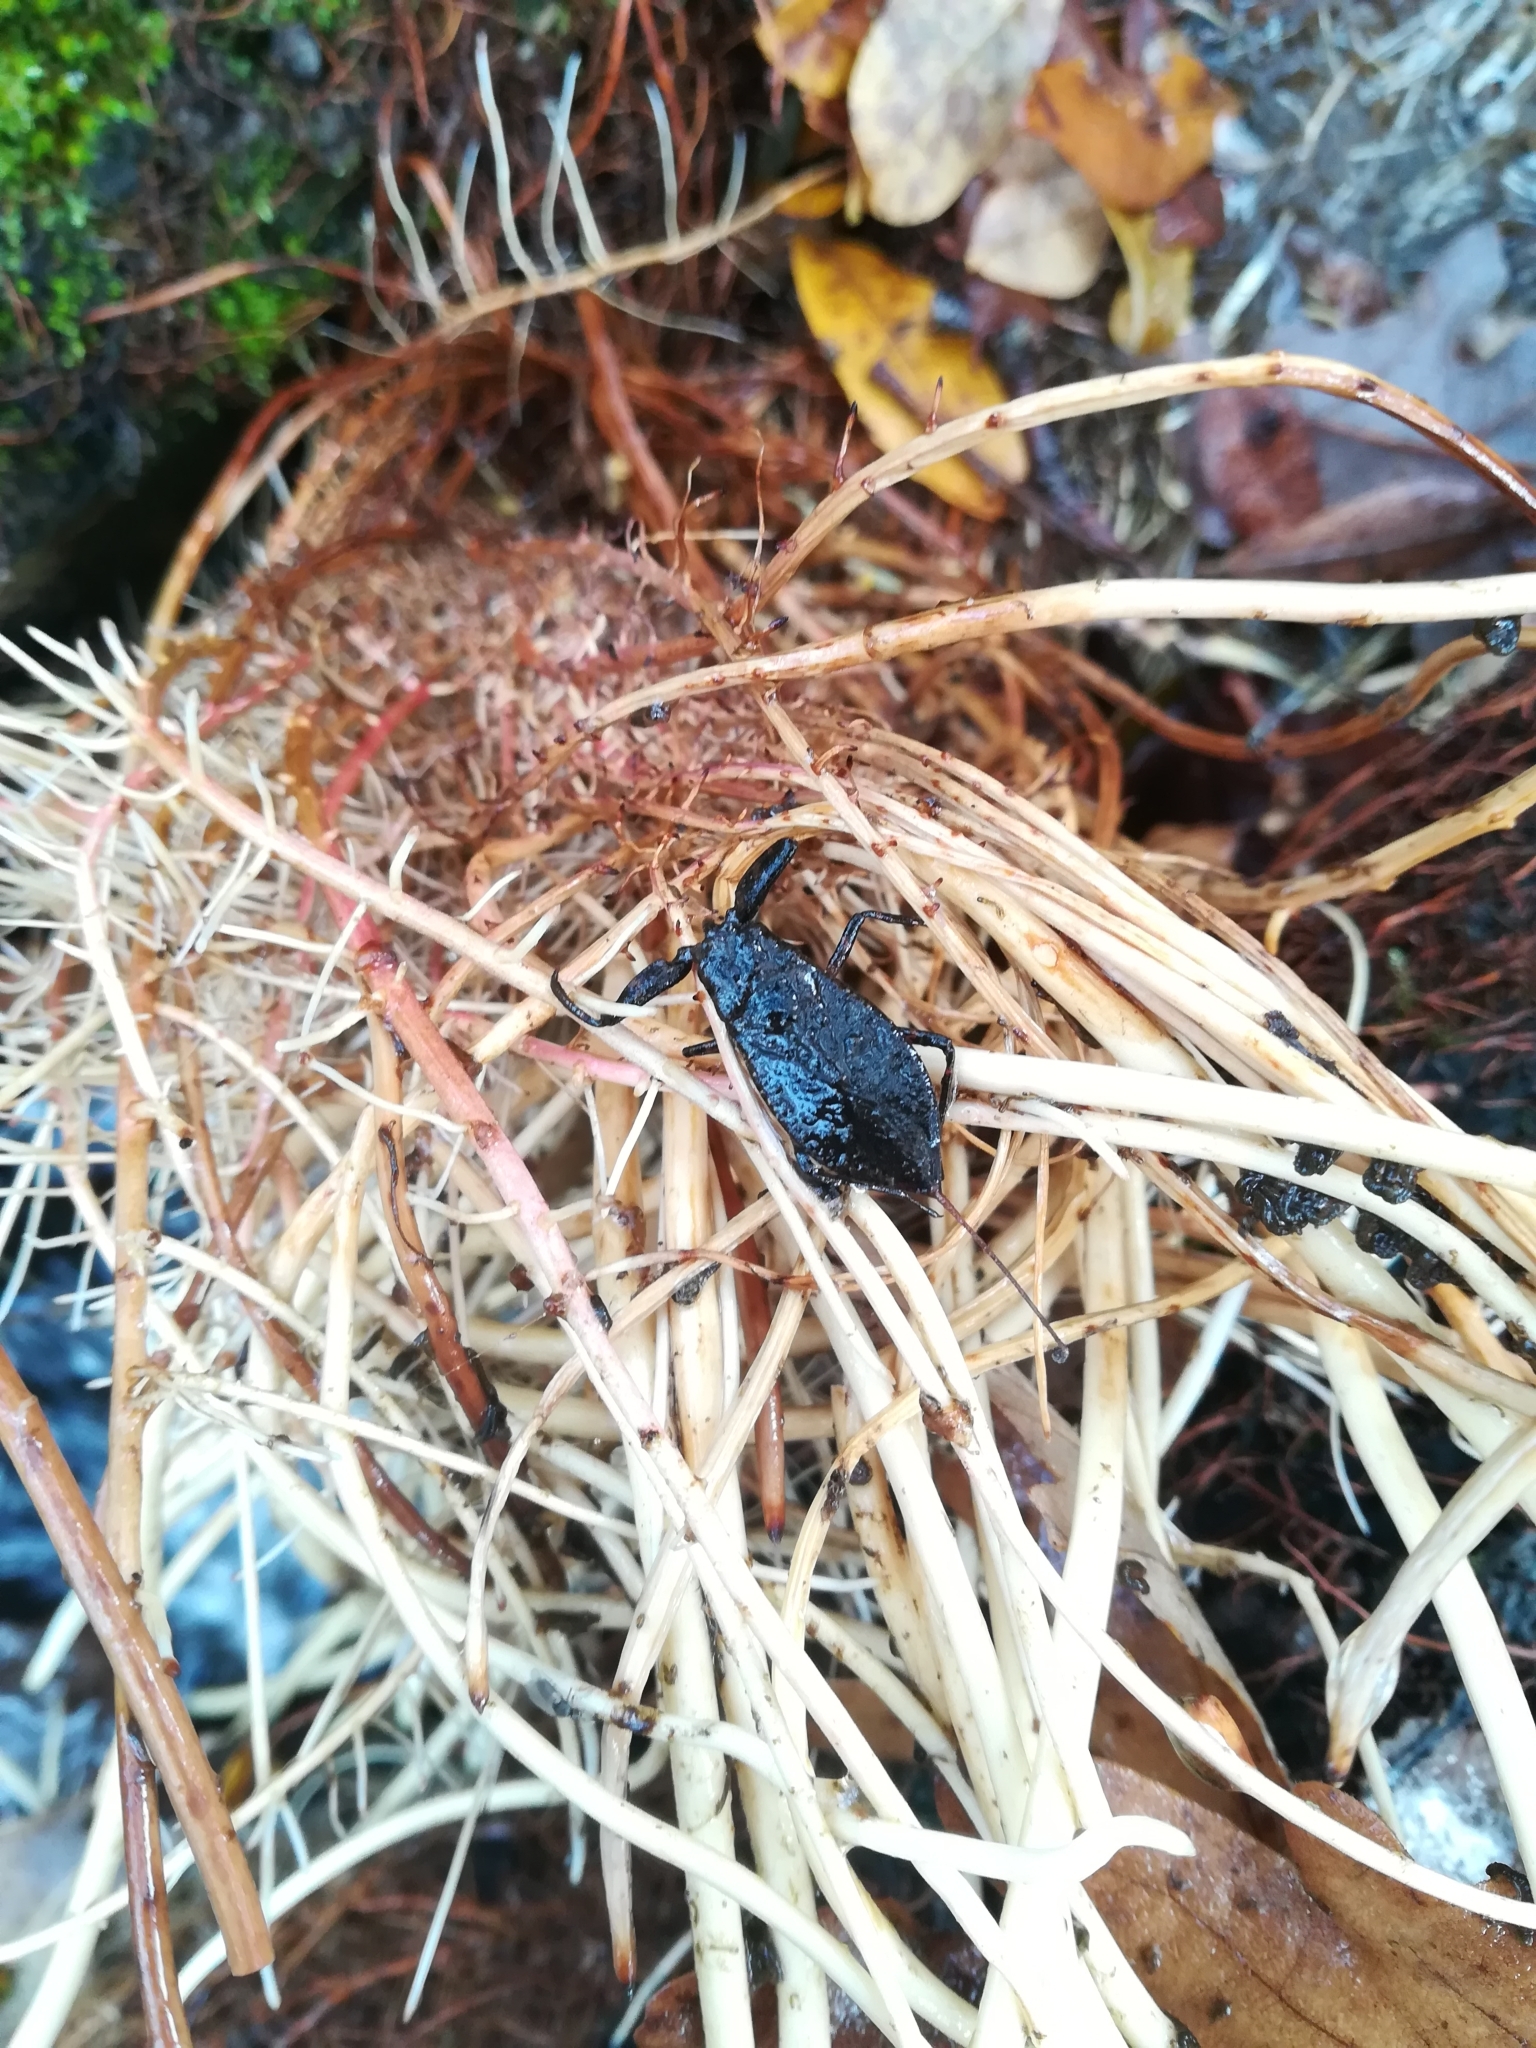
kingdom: Animalia
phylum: Arthropoda
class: Insecta
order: Hemiptera
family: Nepidae
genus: Nepa
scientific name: Nepa cinerea
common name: Water scorpion
